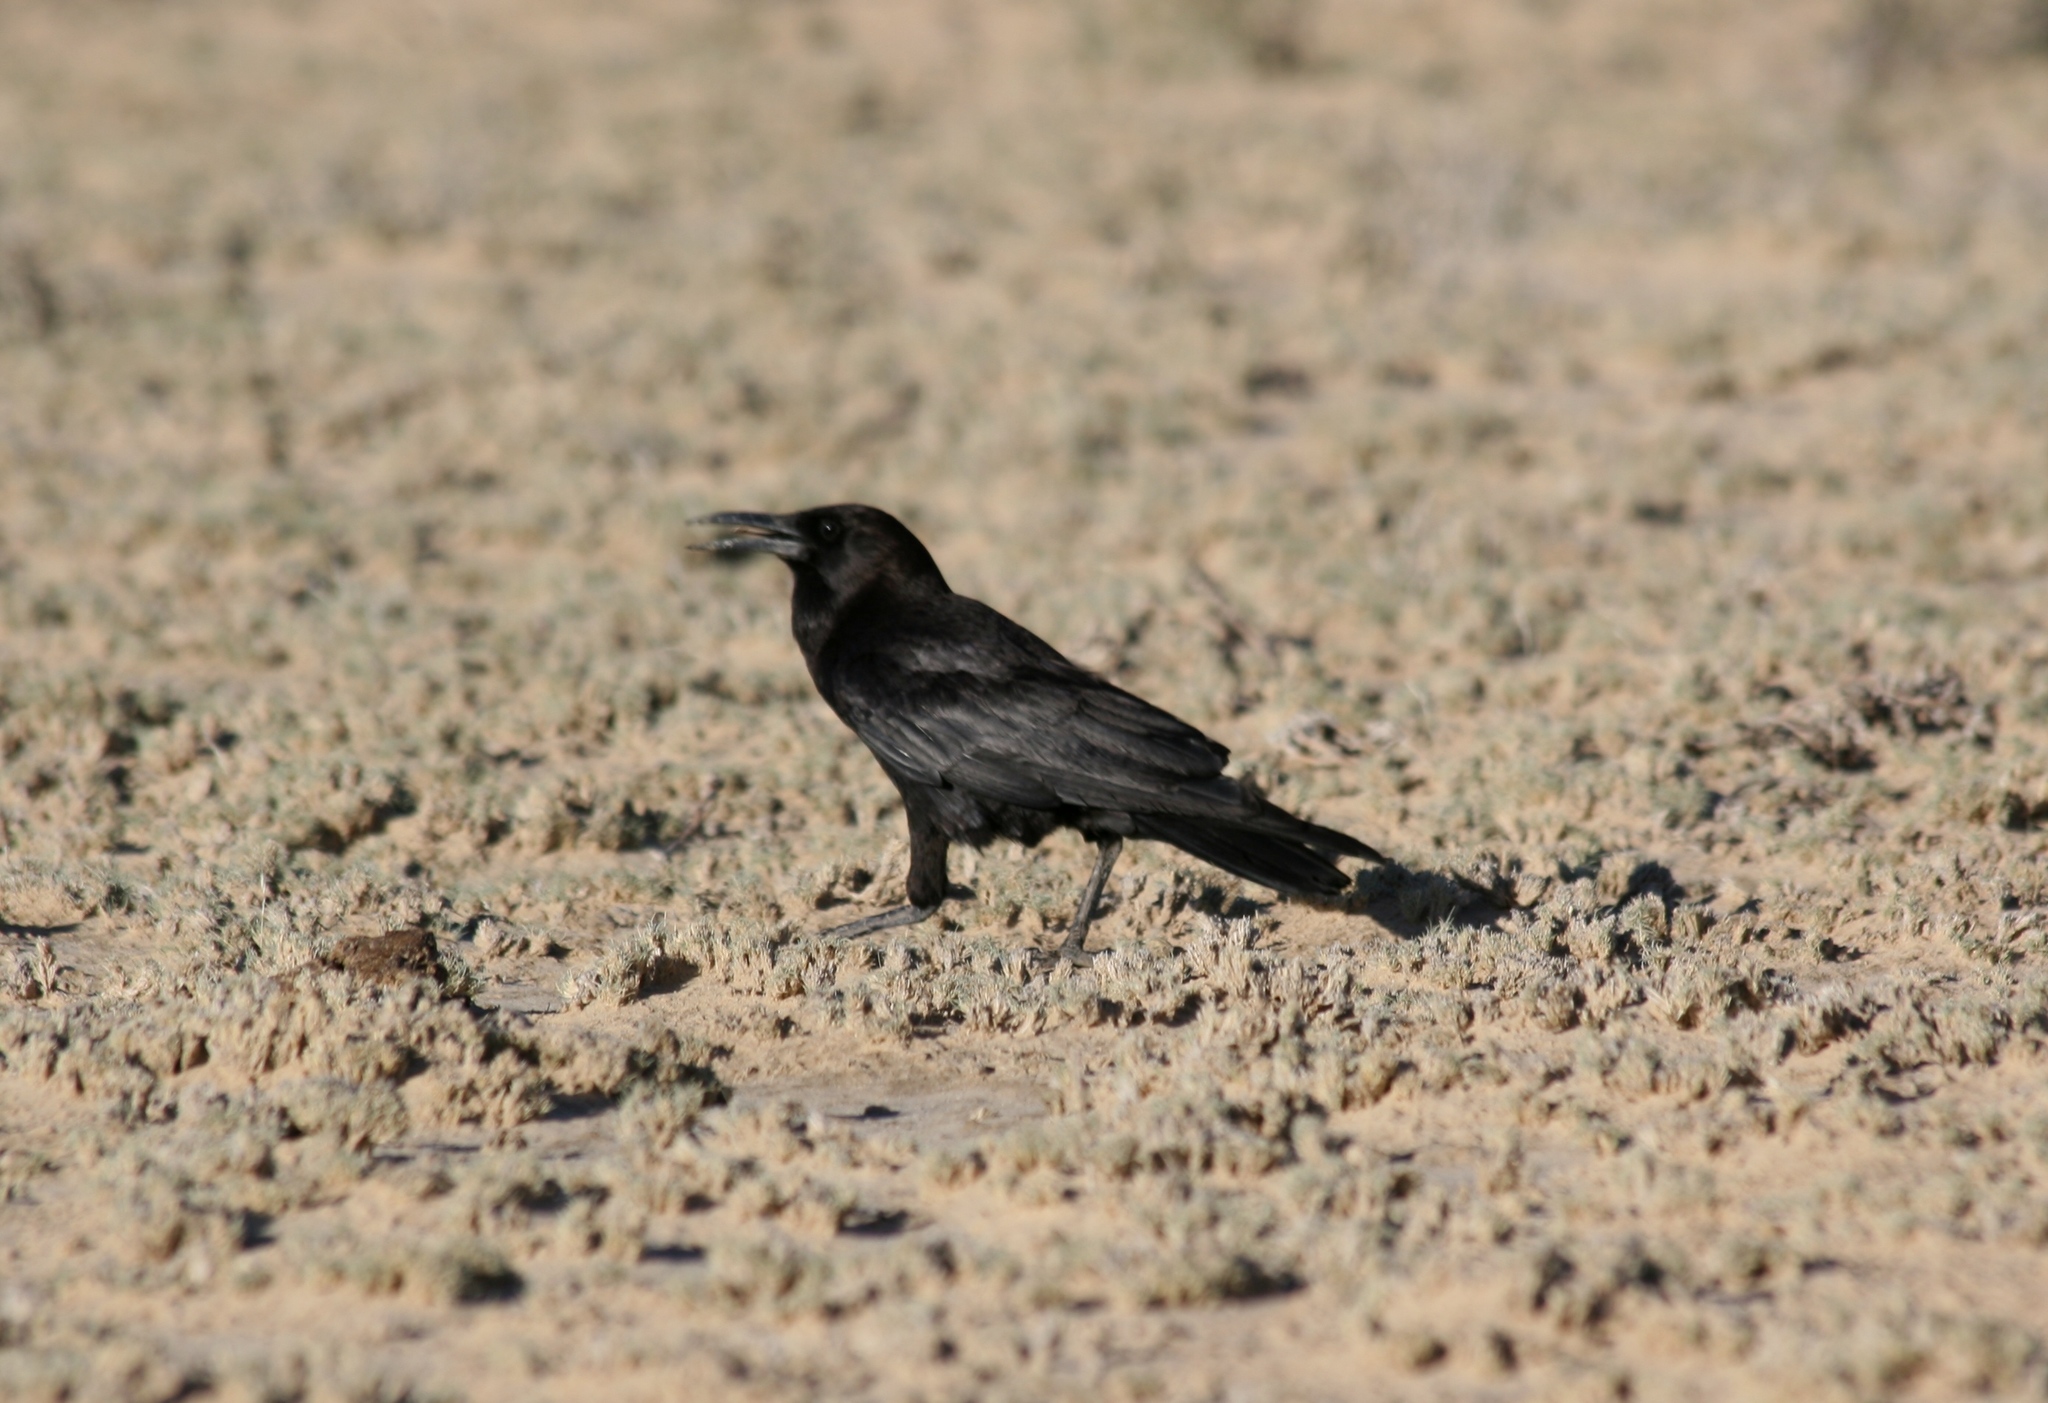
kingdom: Animalia
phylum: Chordata
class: Aves
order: Passeriformes
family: Corvidae
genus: Corvus
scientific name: Corvus capensis
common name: Cape crow
